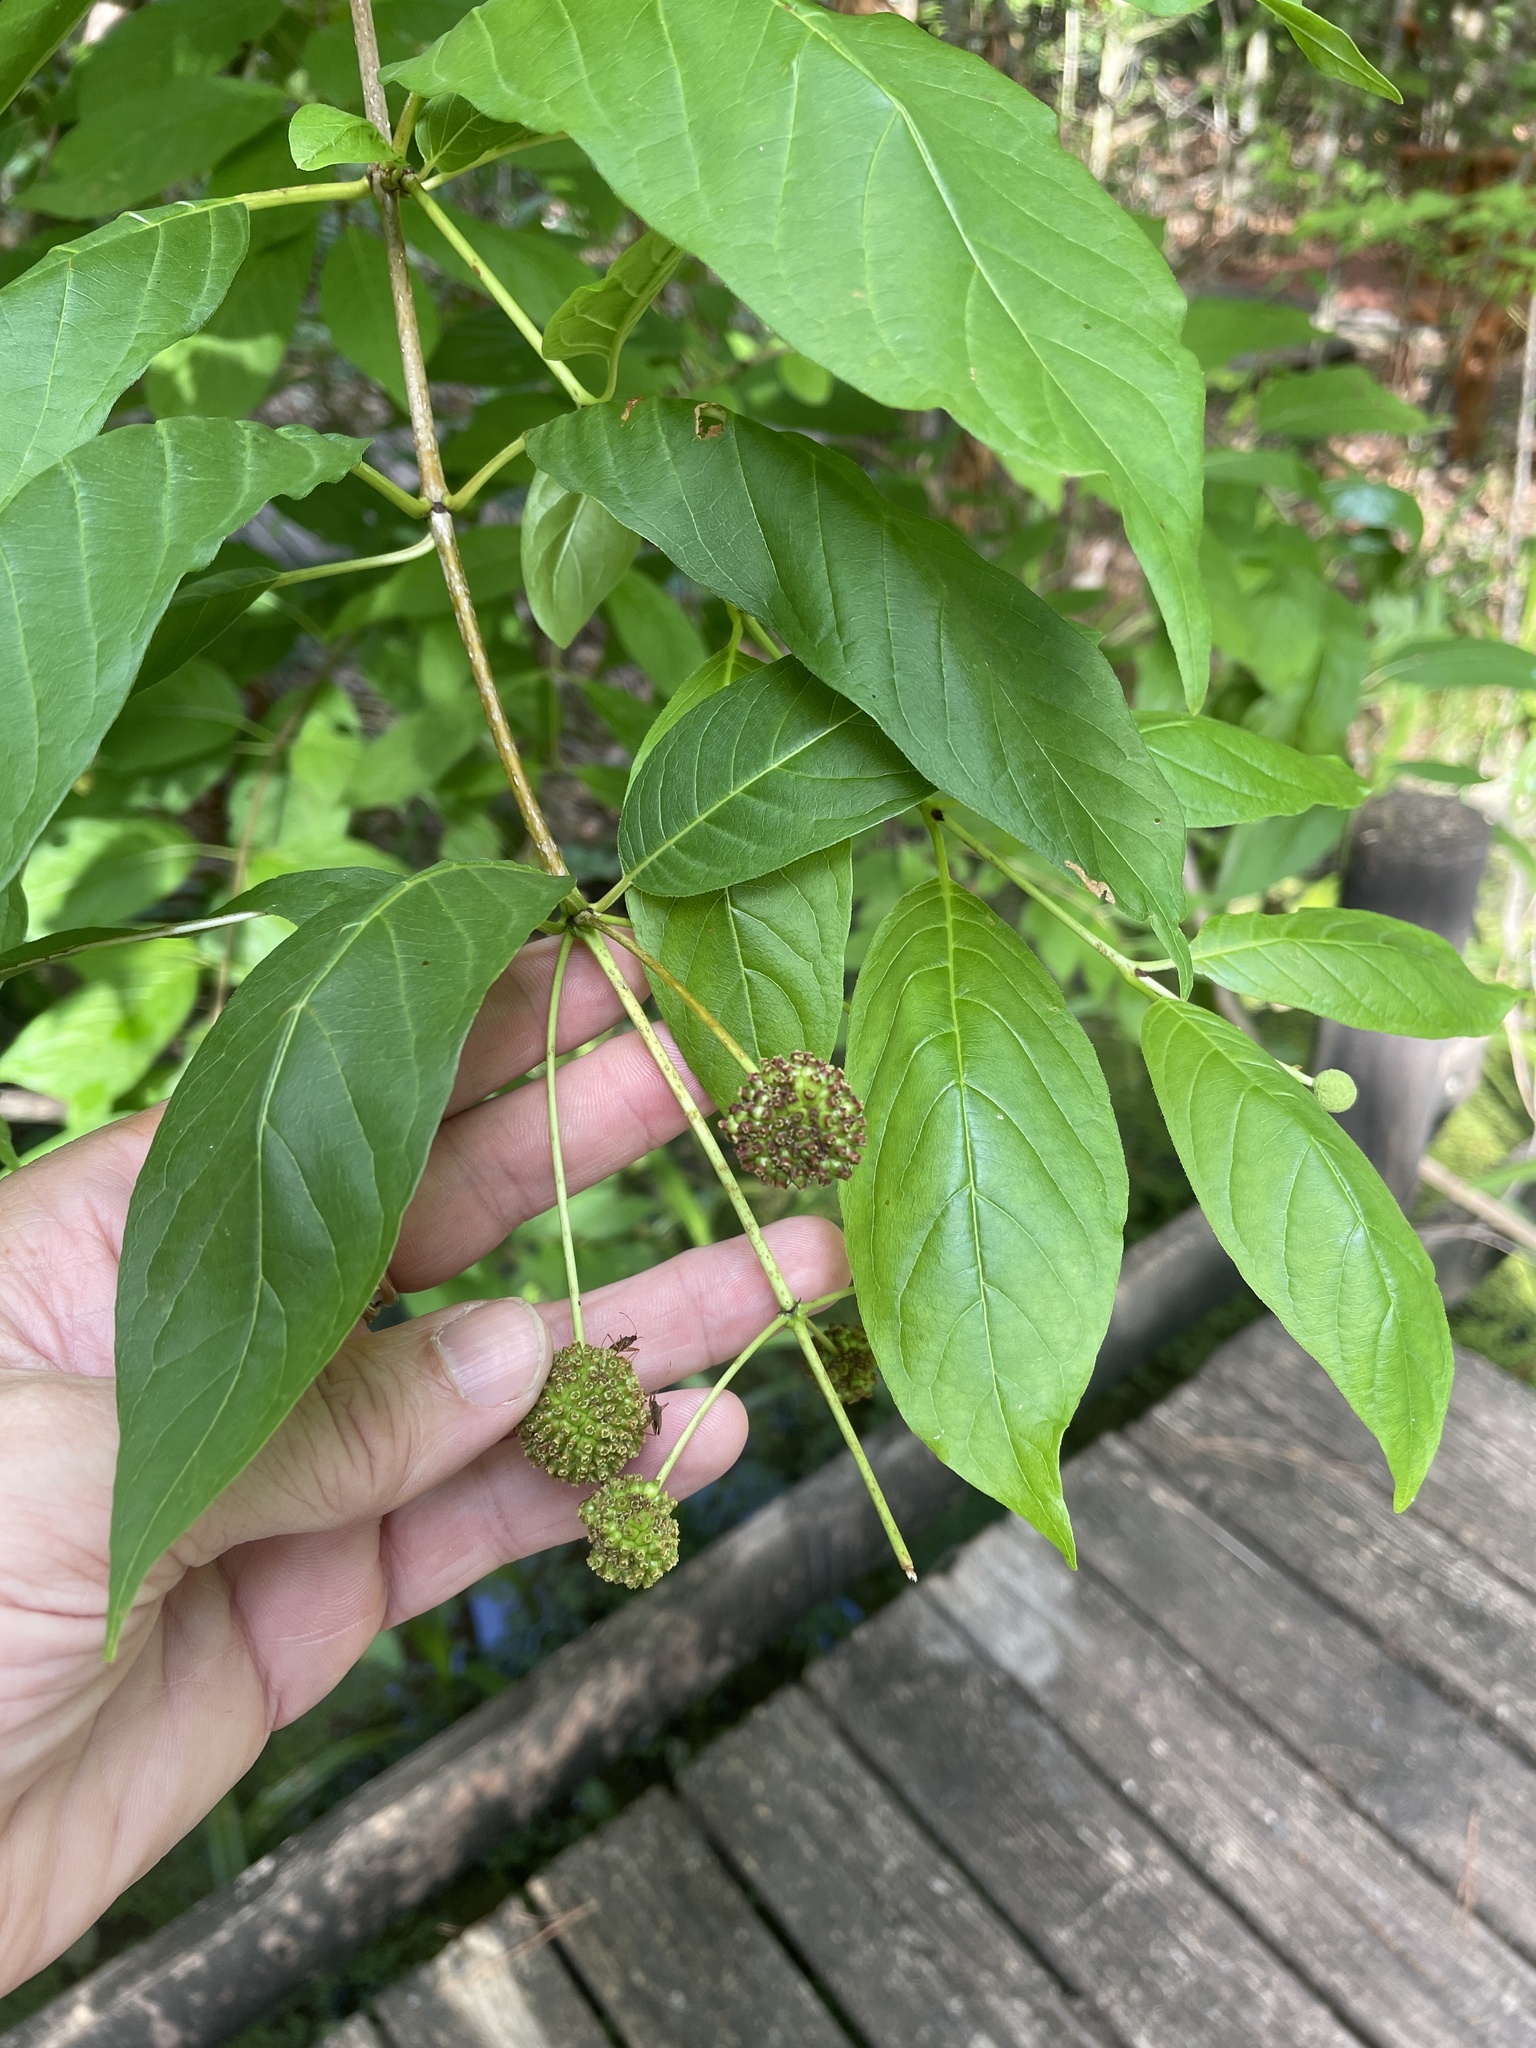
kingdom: Plantae
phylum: Tracheophyta
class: Magnoliopsida
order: Gentianales
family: Rubiaceae
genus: Cephalanthus
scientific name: Cephalanthus occidentalis
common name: Button-willow
